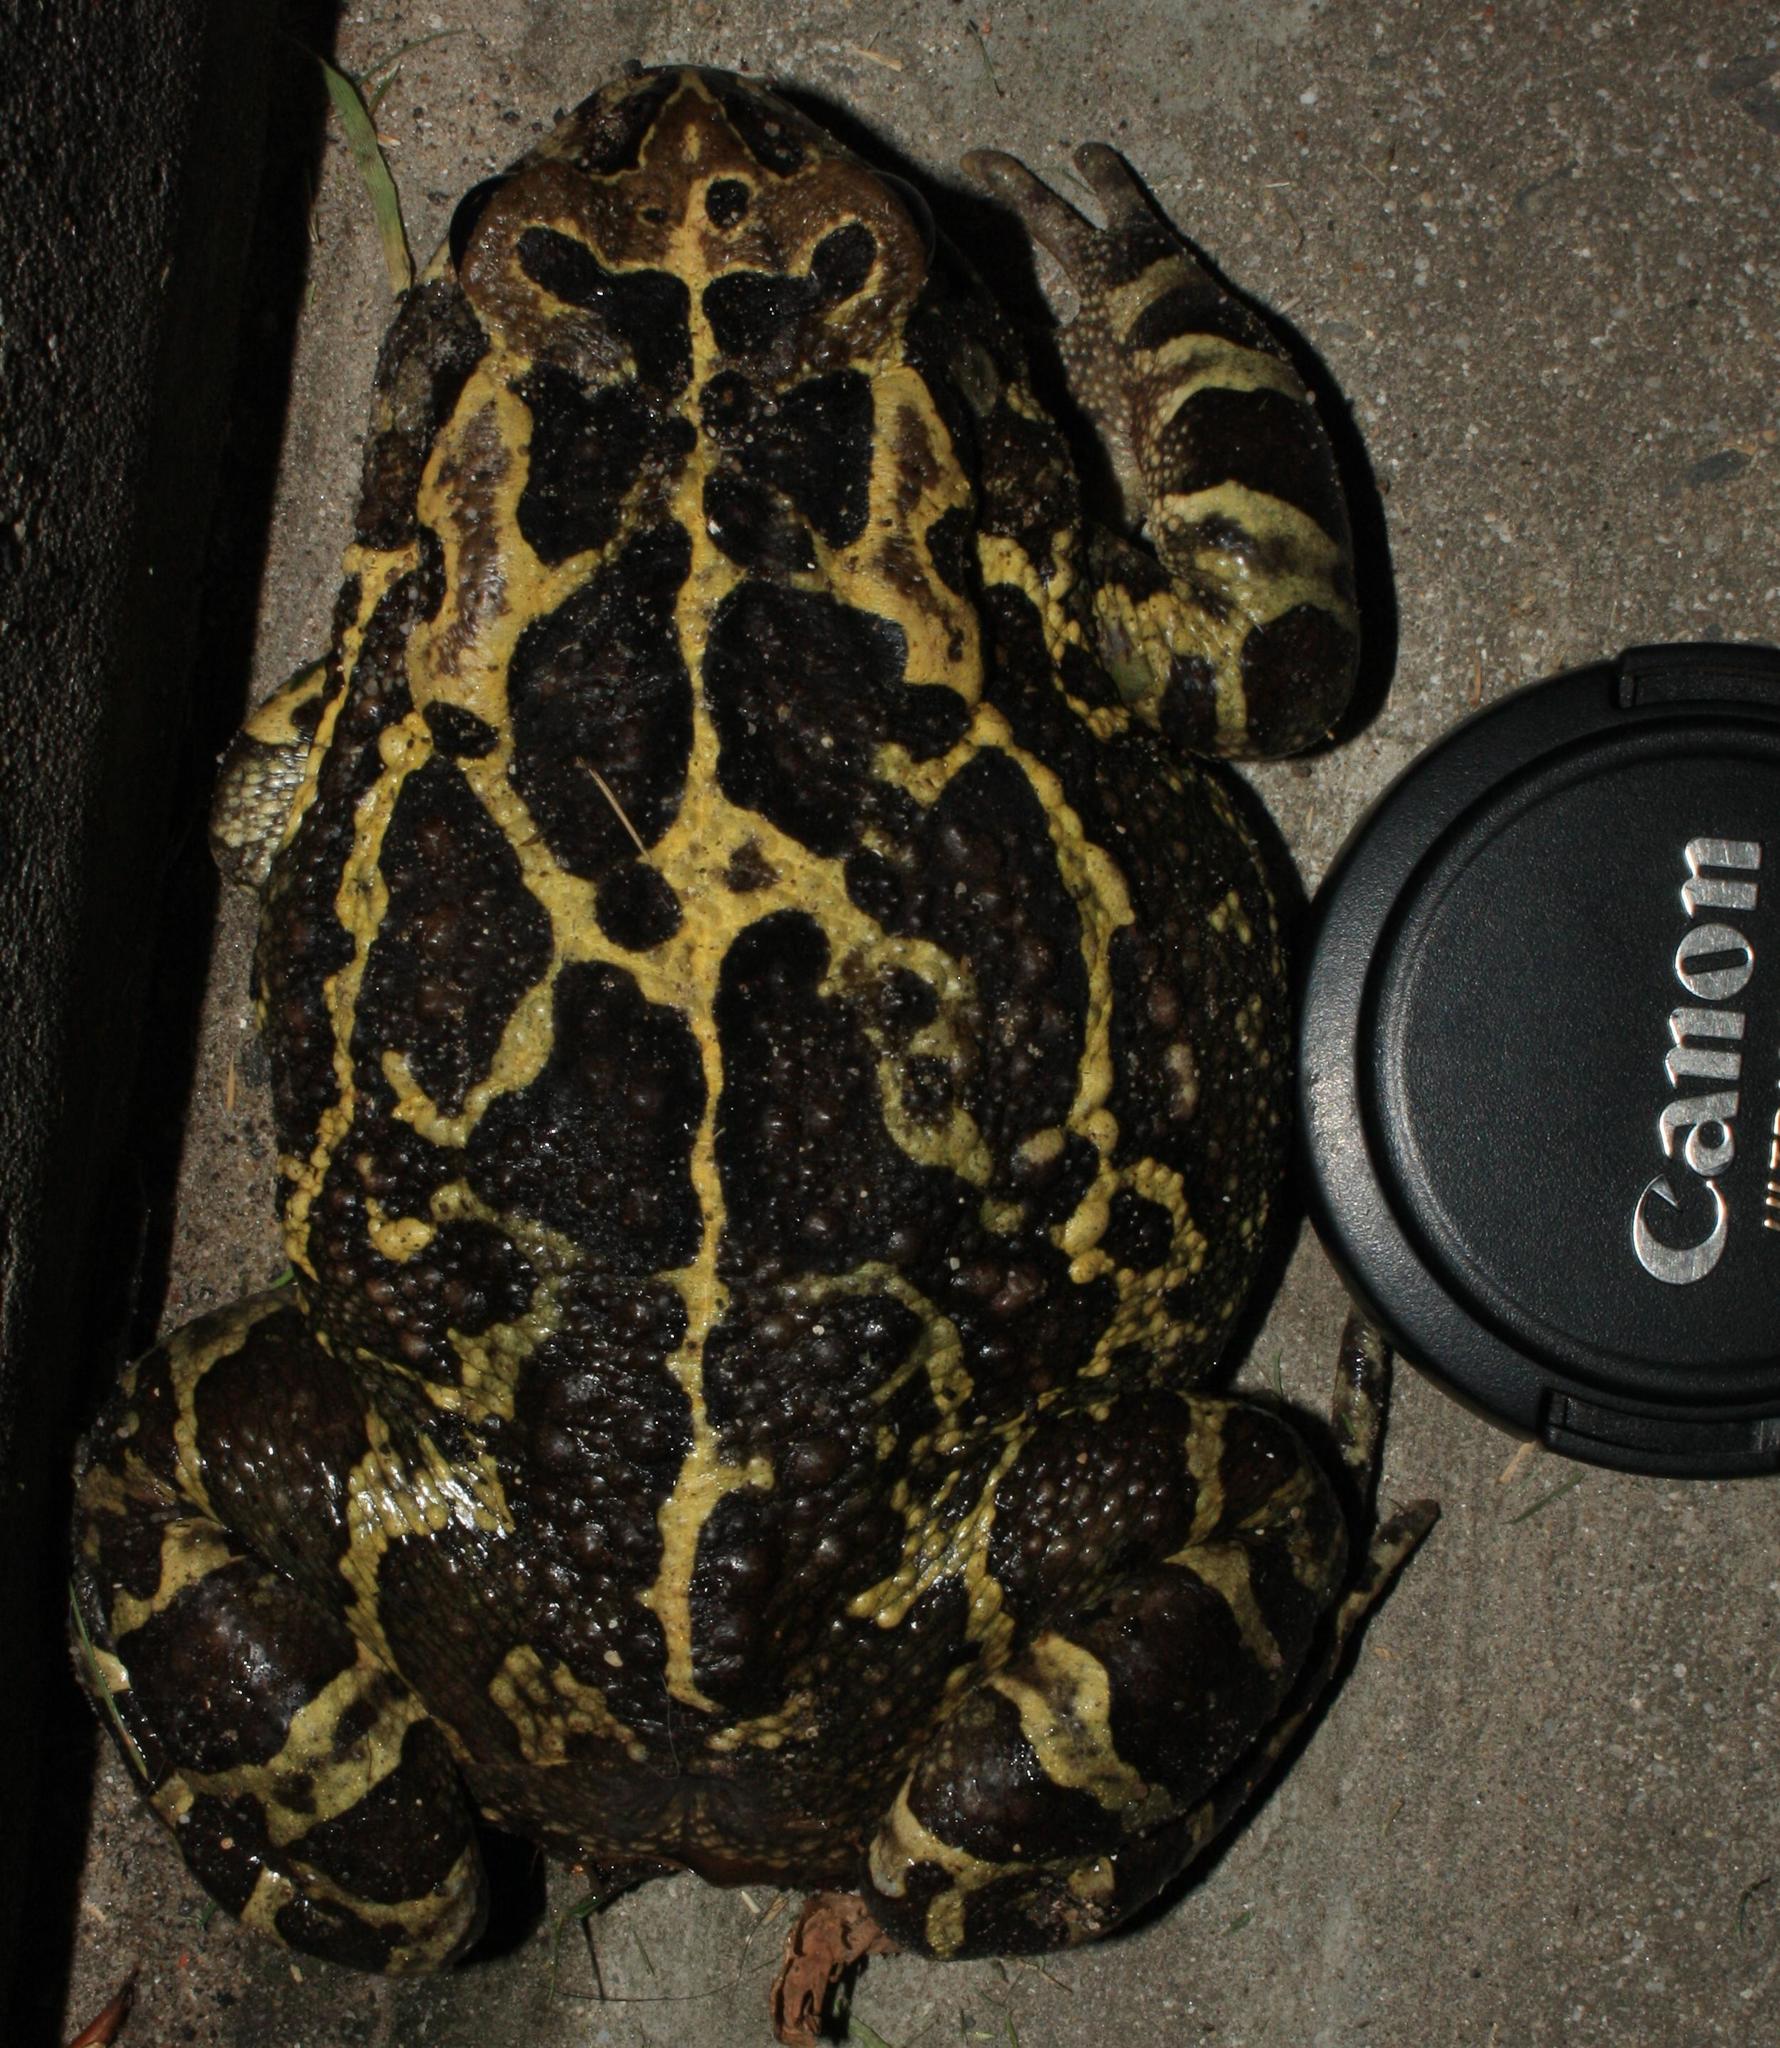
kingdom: Animalia
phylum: Chordata
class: Amphibia
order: Anura
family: Bufonidae
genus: Sclerophrys
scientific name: Sclerophrys pantherina
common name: Panther toad
